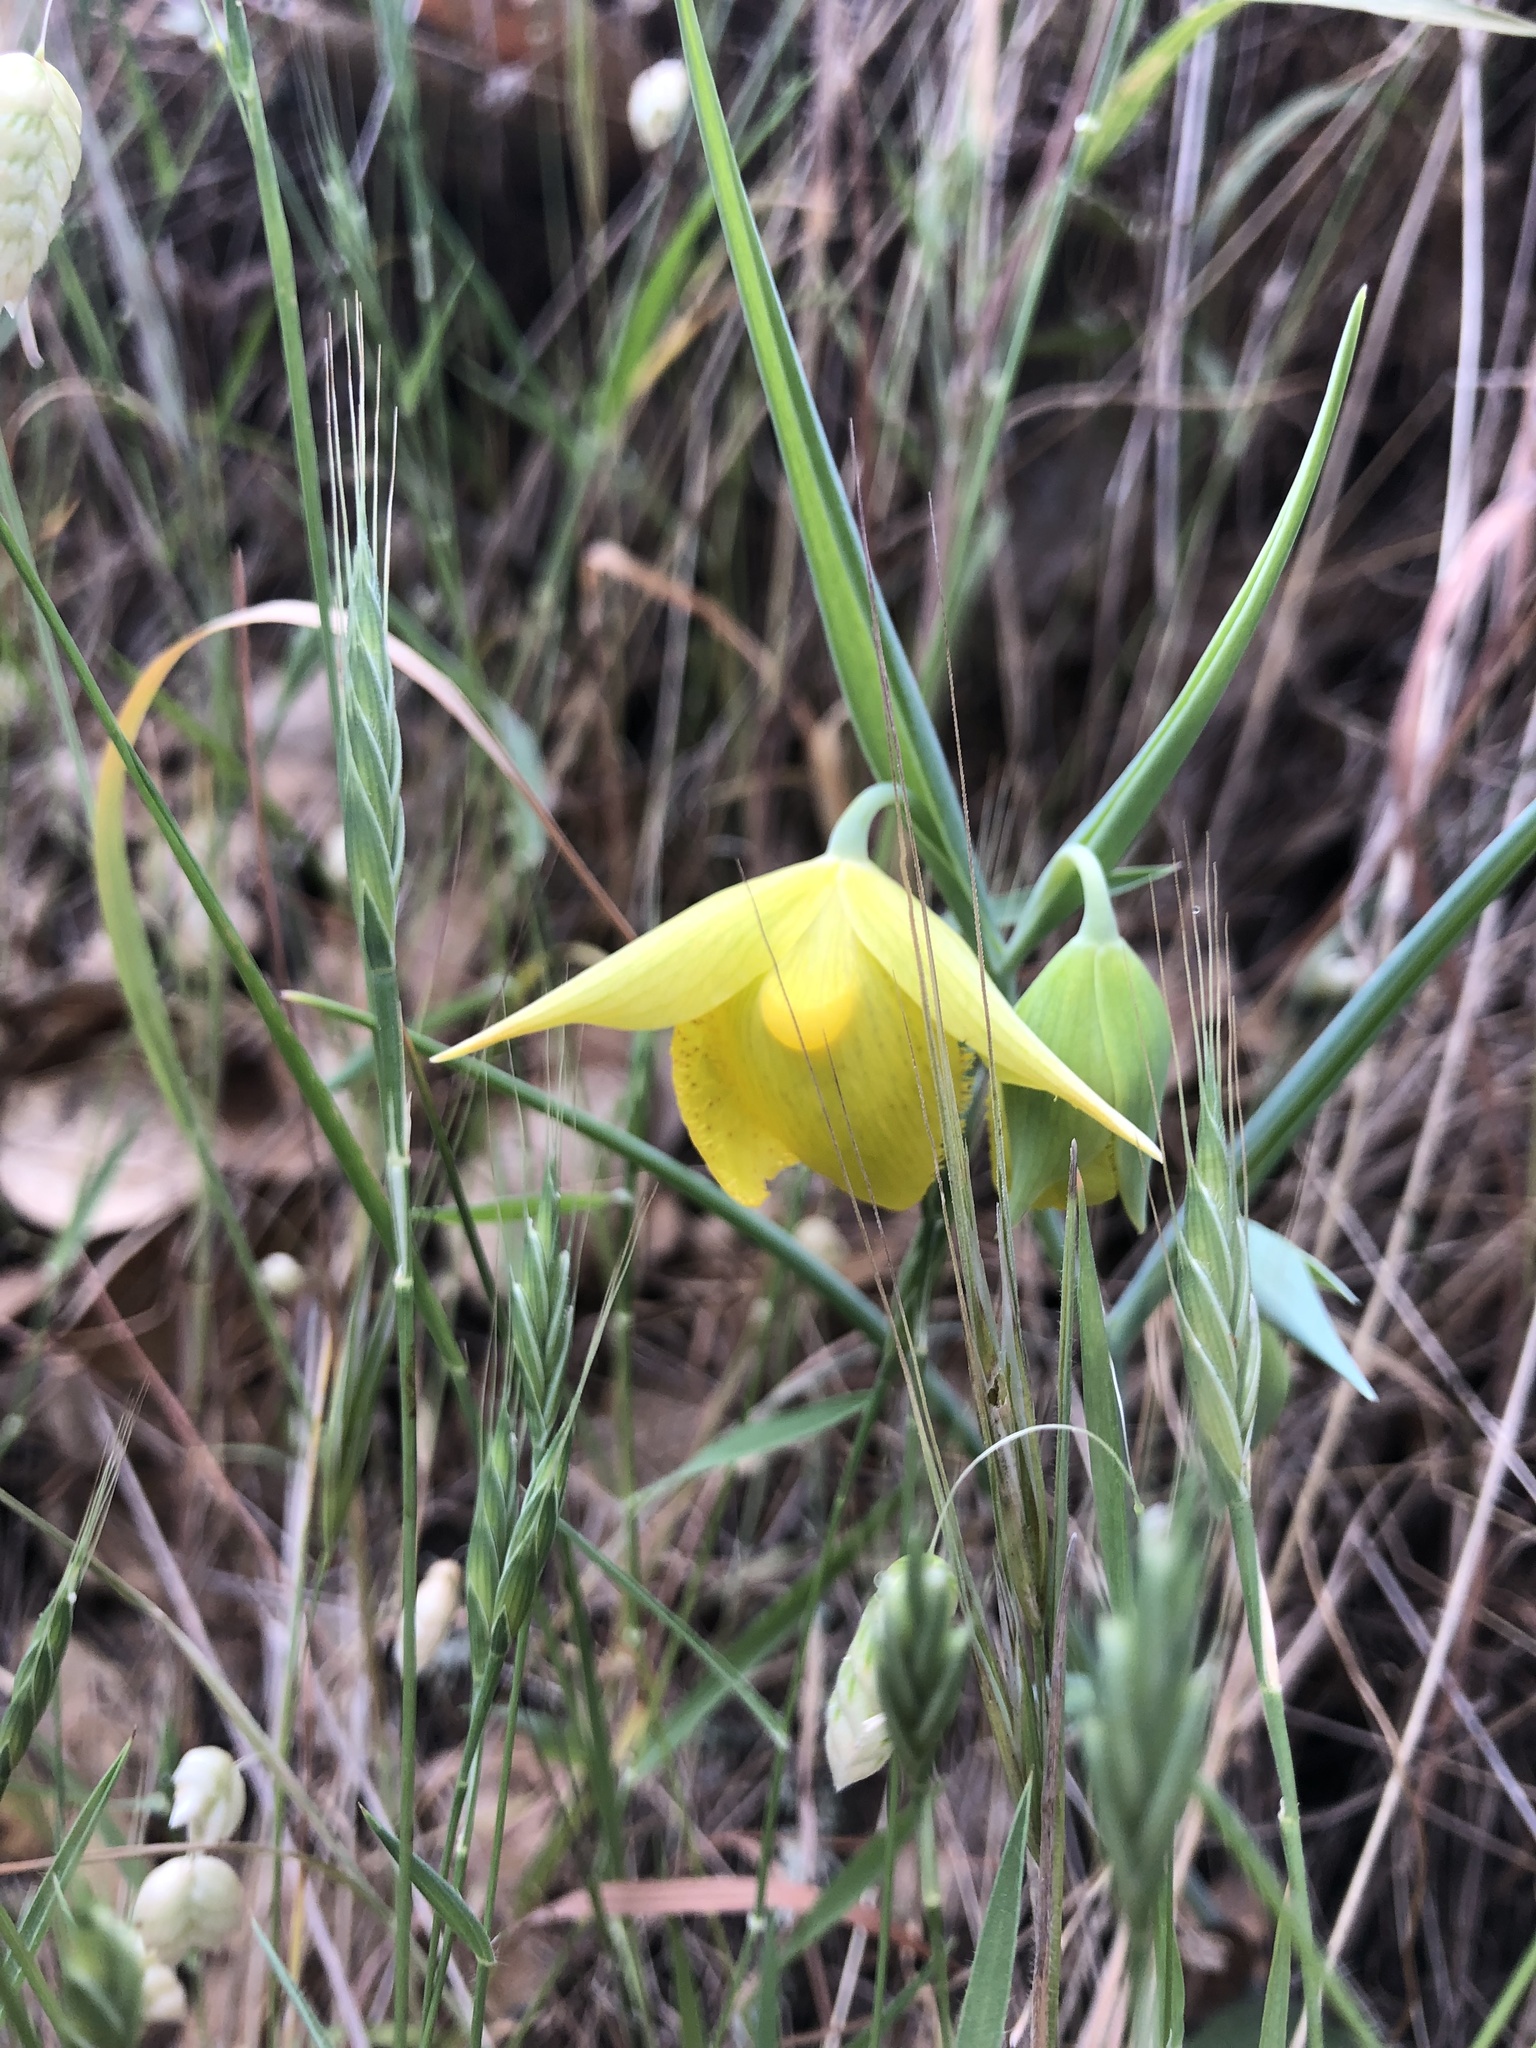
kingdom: Plantae
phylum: Tracheophyta
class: Liliopsida
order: Liliales
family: Liliaceae
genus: Calochortus
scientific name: Calochortus pulchellus
